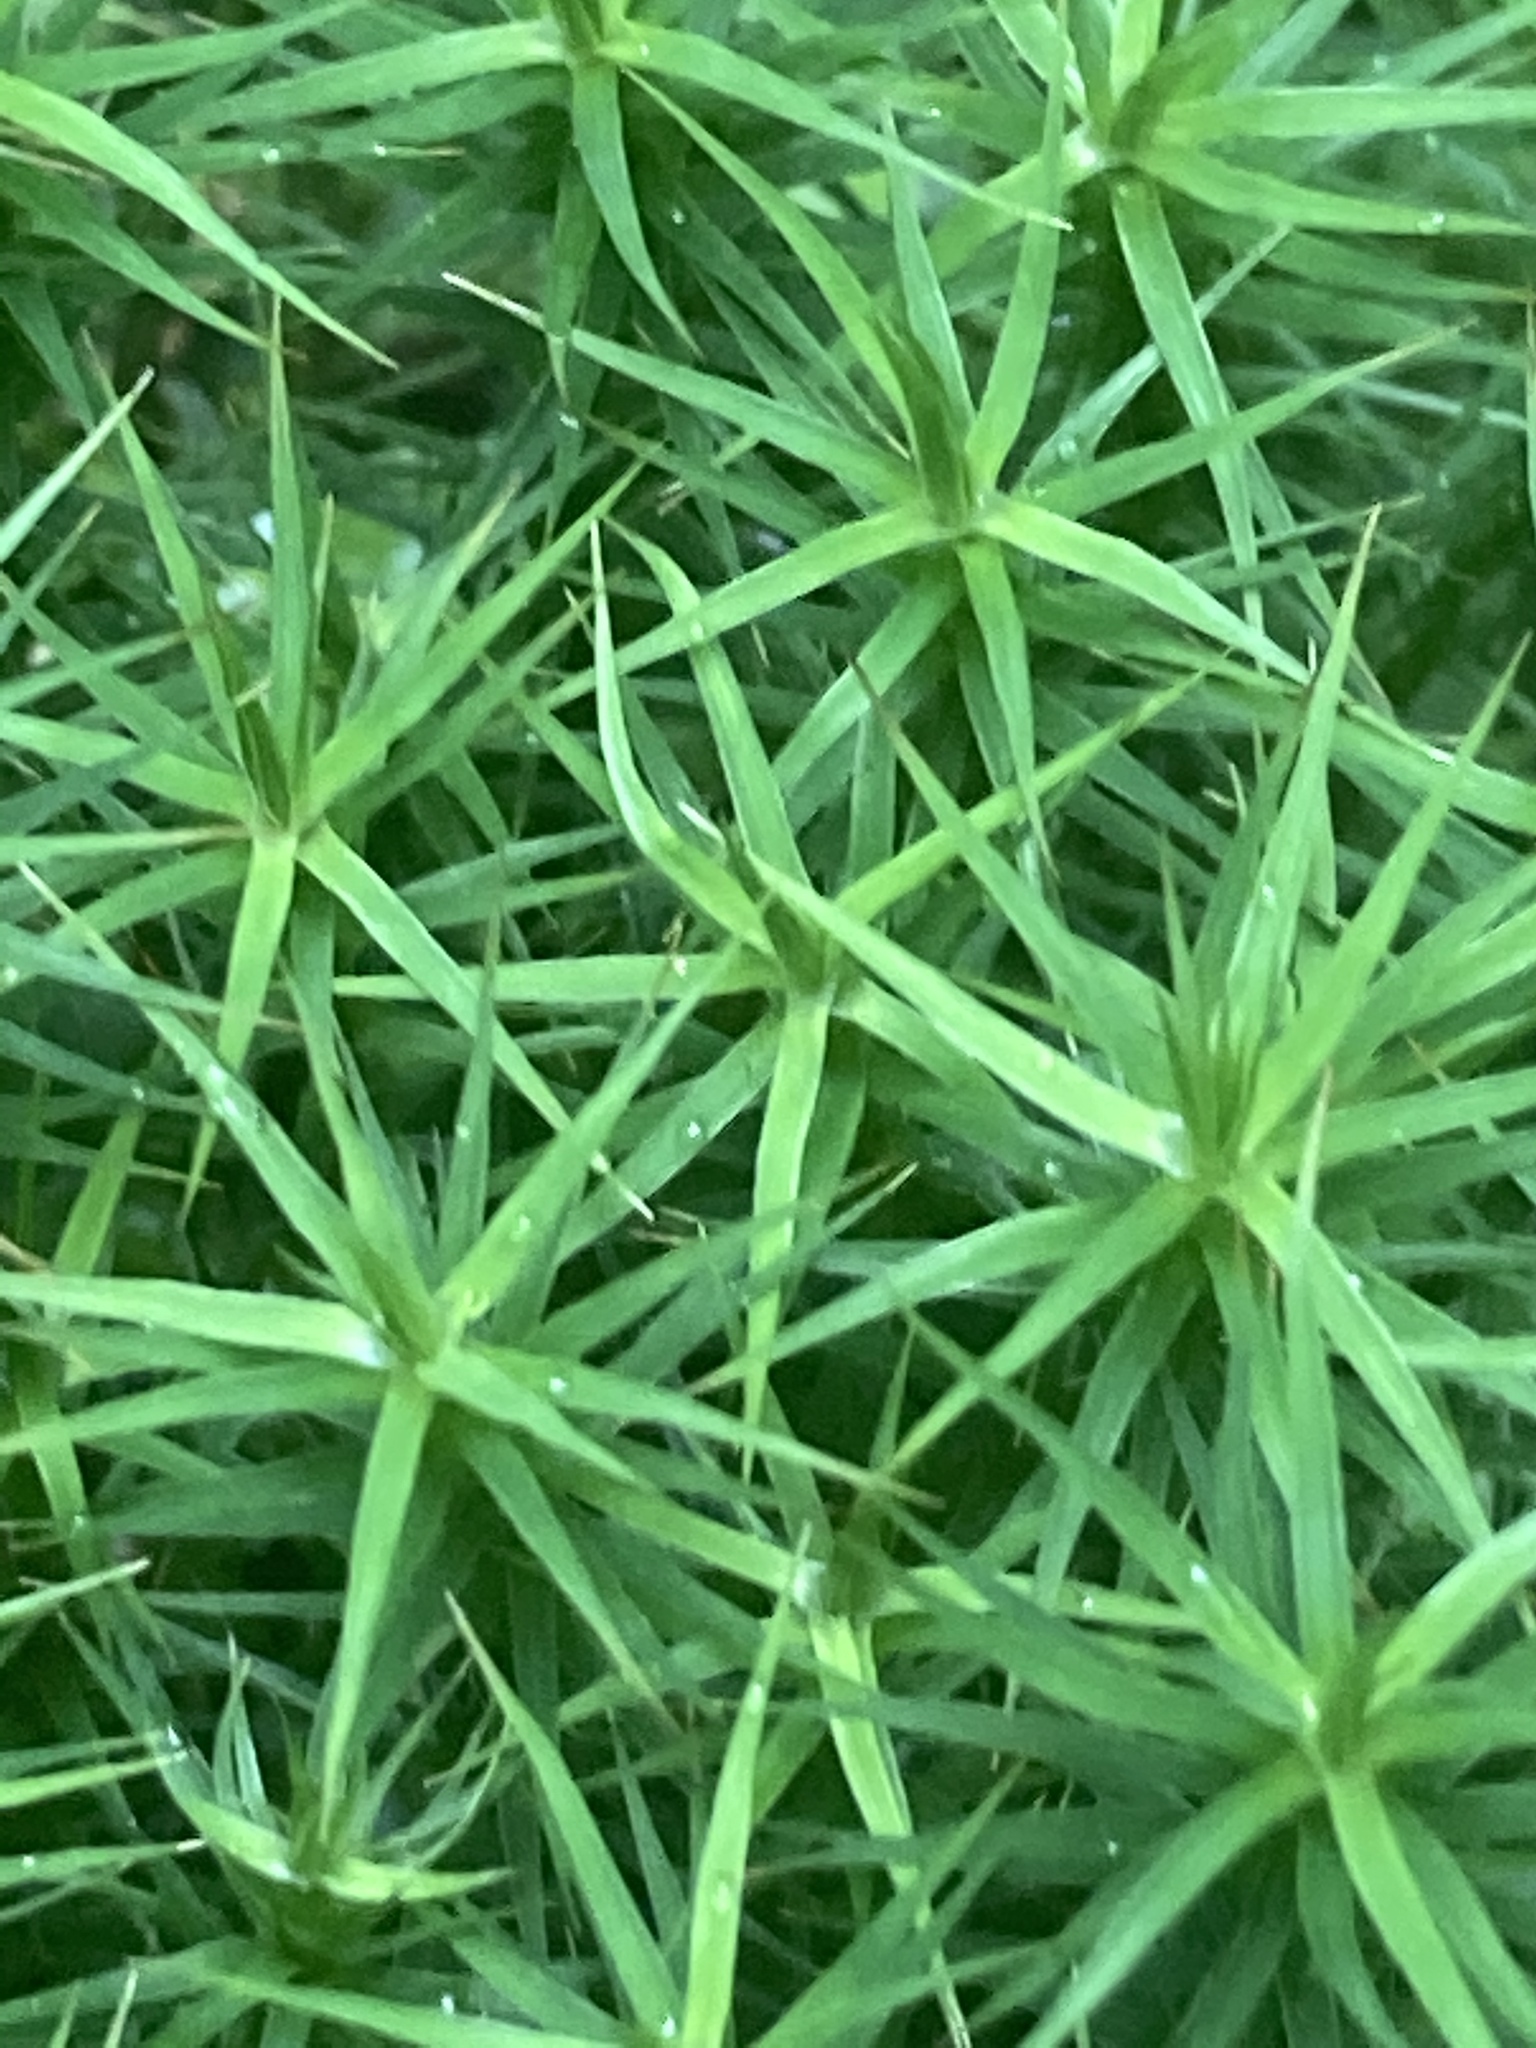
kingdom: Plantae
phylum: Bryophyta
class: Polytrichopsida
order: Polytrichales
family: Polytrichaceae
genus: Polytrichum
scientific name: Polytrichum formosum
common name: Bank haircap moss
